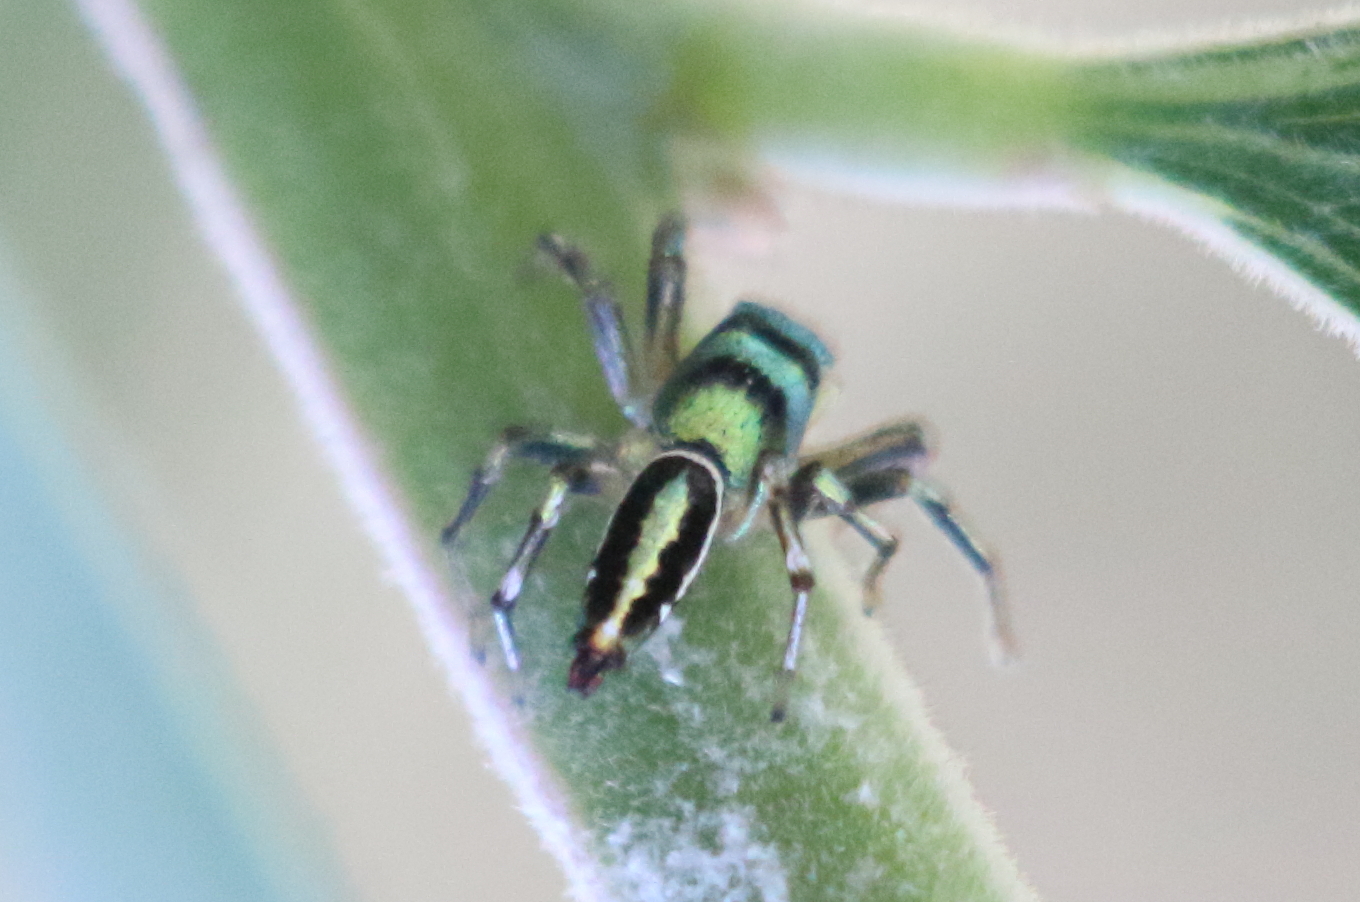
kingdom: Animalia
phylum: Arthropoda
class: Arachnida
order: Araneae
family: Salticidae
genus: Cosmophasis
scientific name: Cosmophasis thalassina
